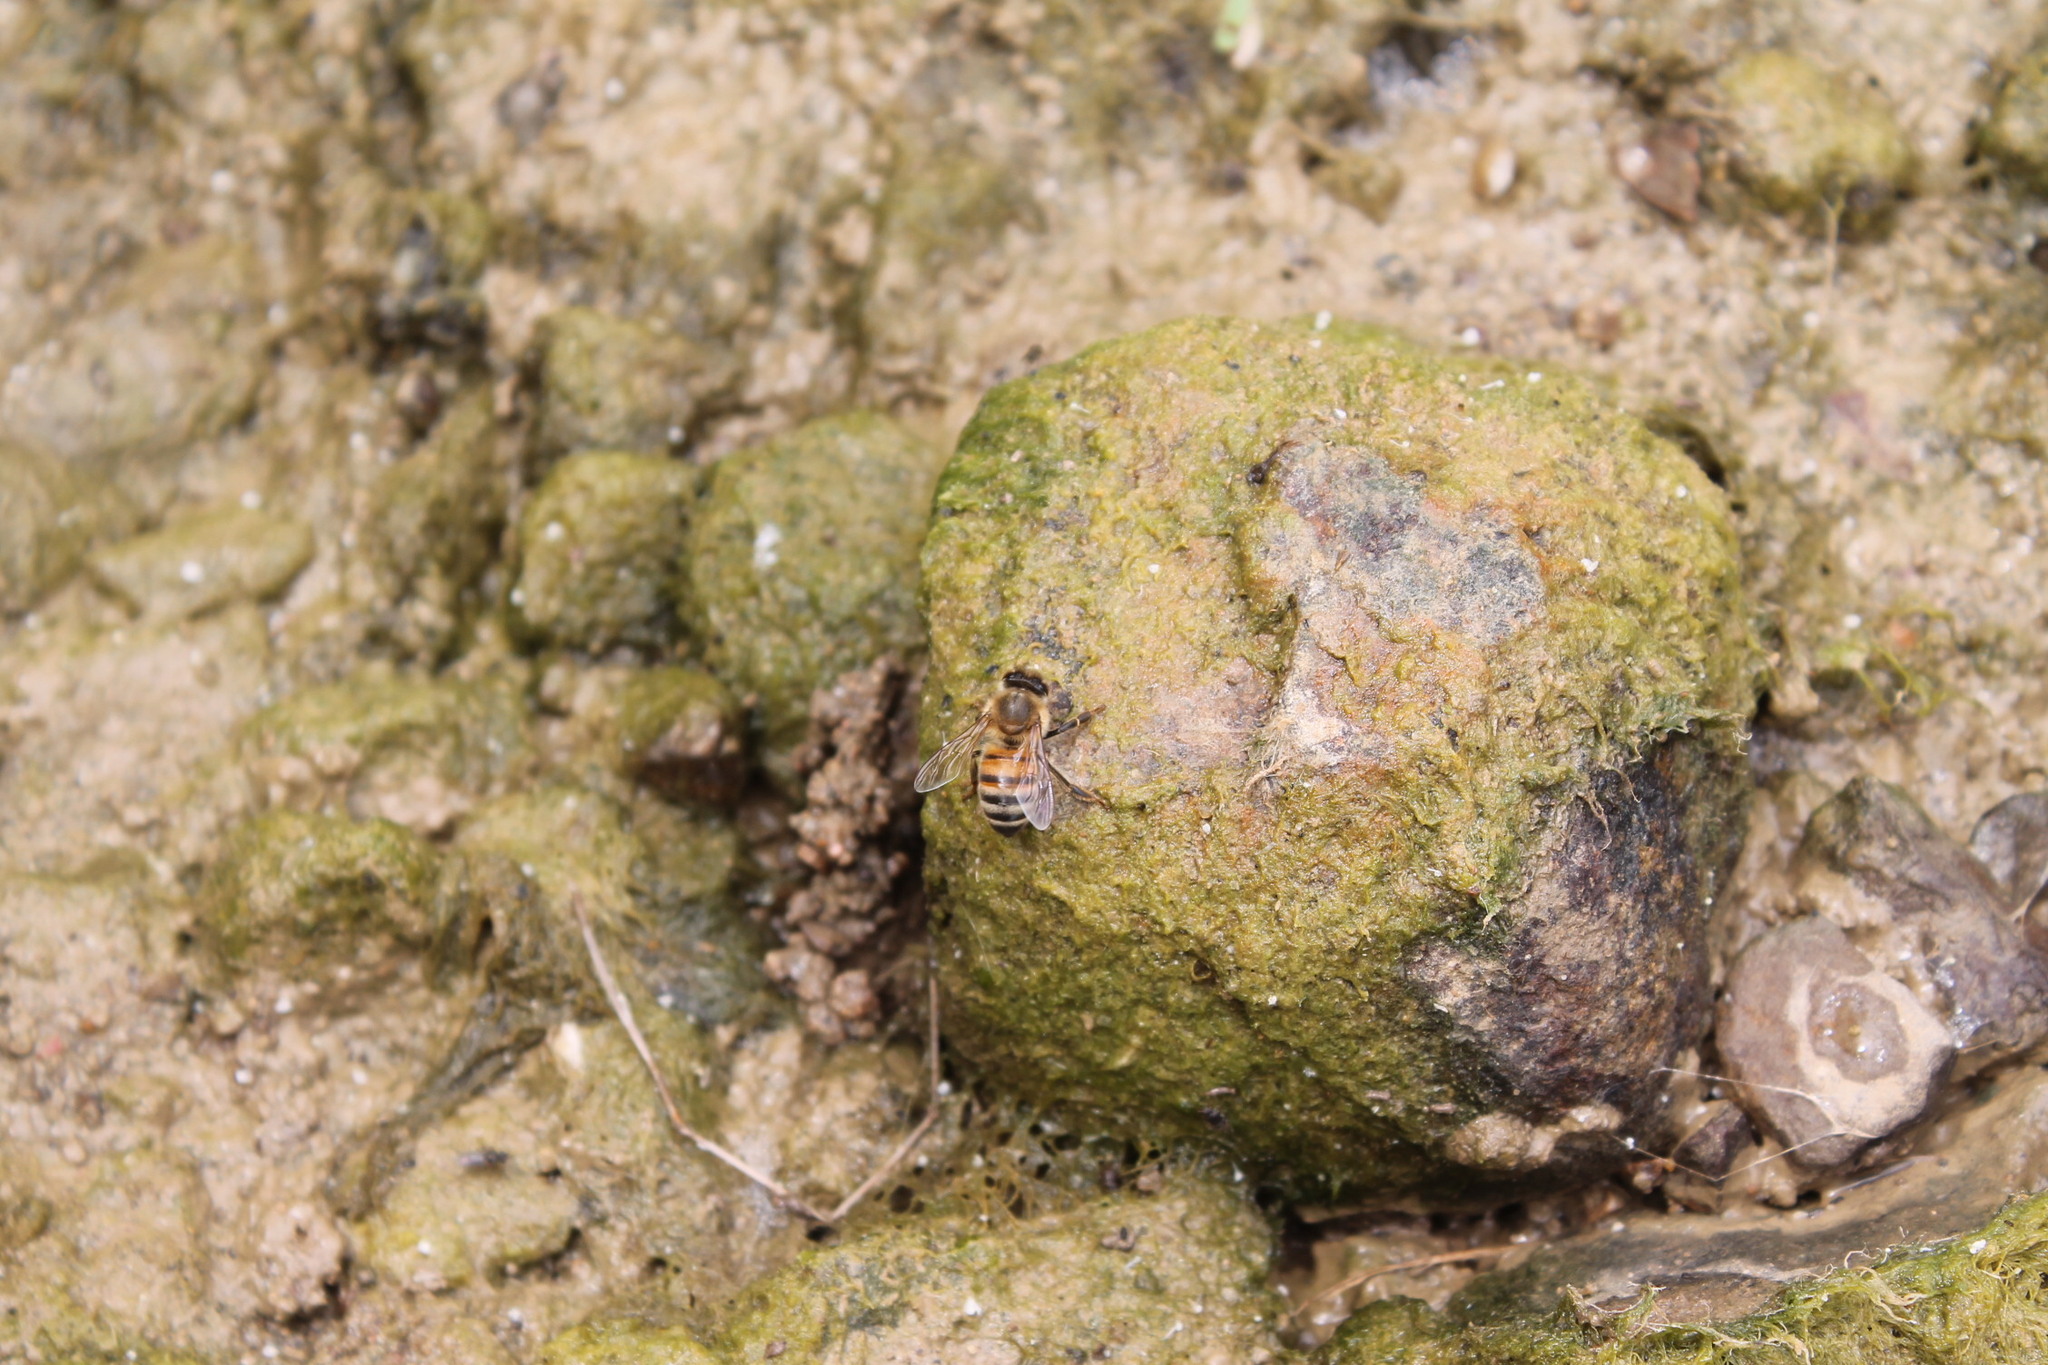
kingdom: Animalia
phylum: Arthropoda
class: Insecta
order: Hymenoptera
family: Apidae
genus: Apis
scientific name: Apis mellifera
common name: Honey bee
